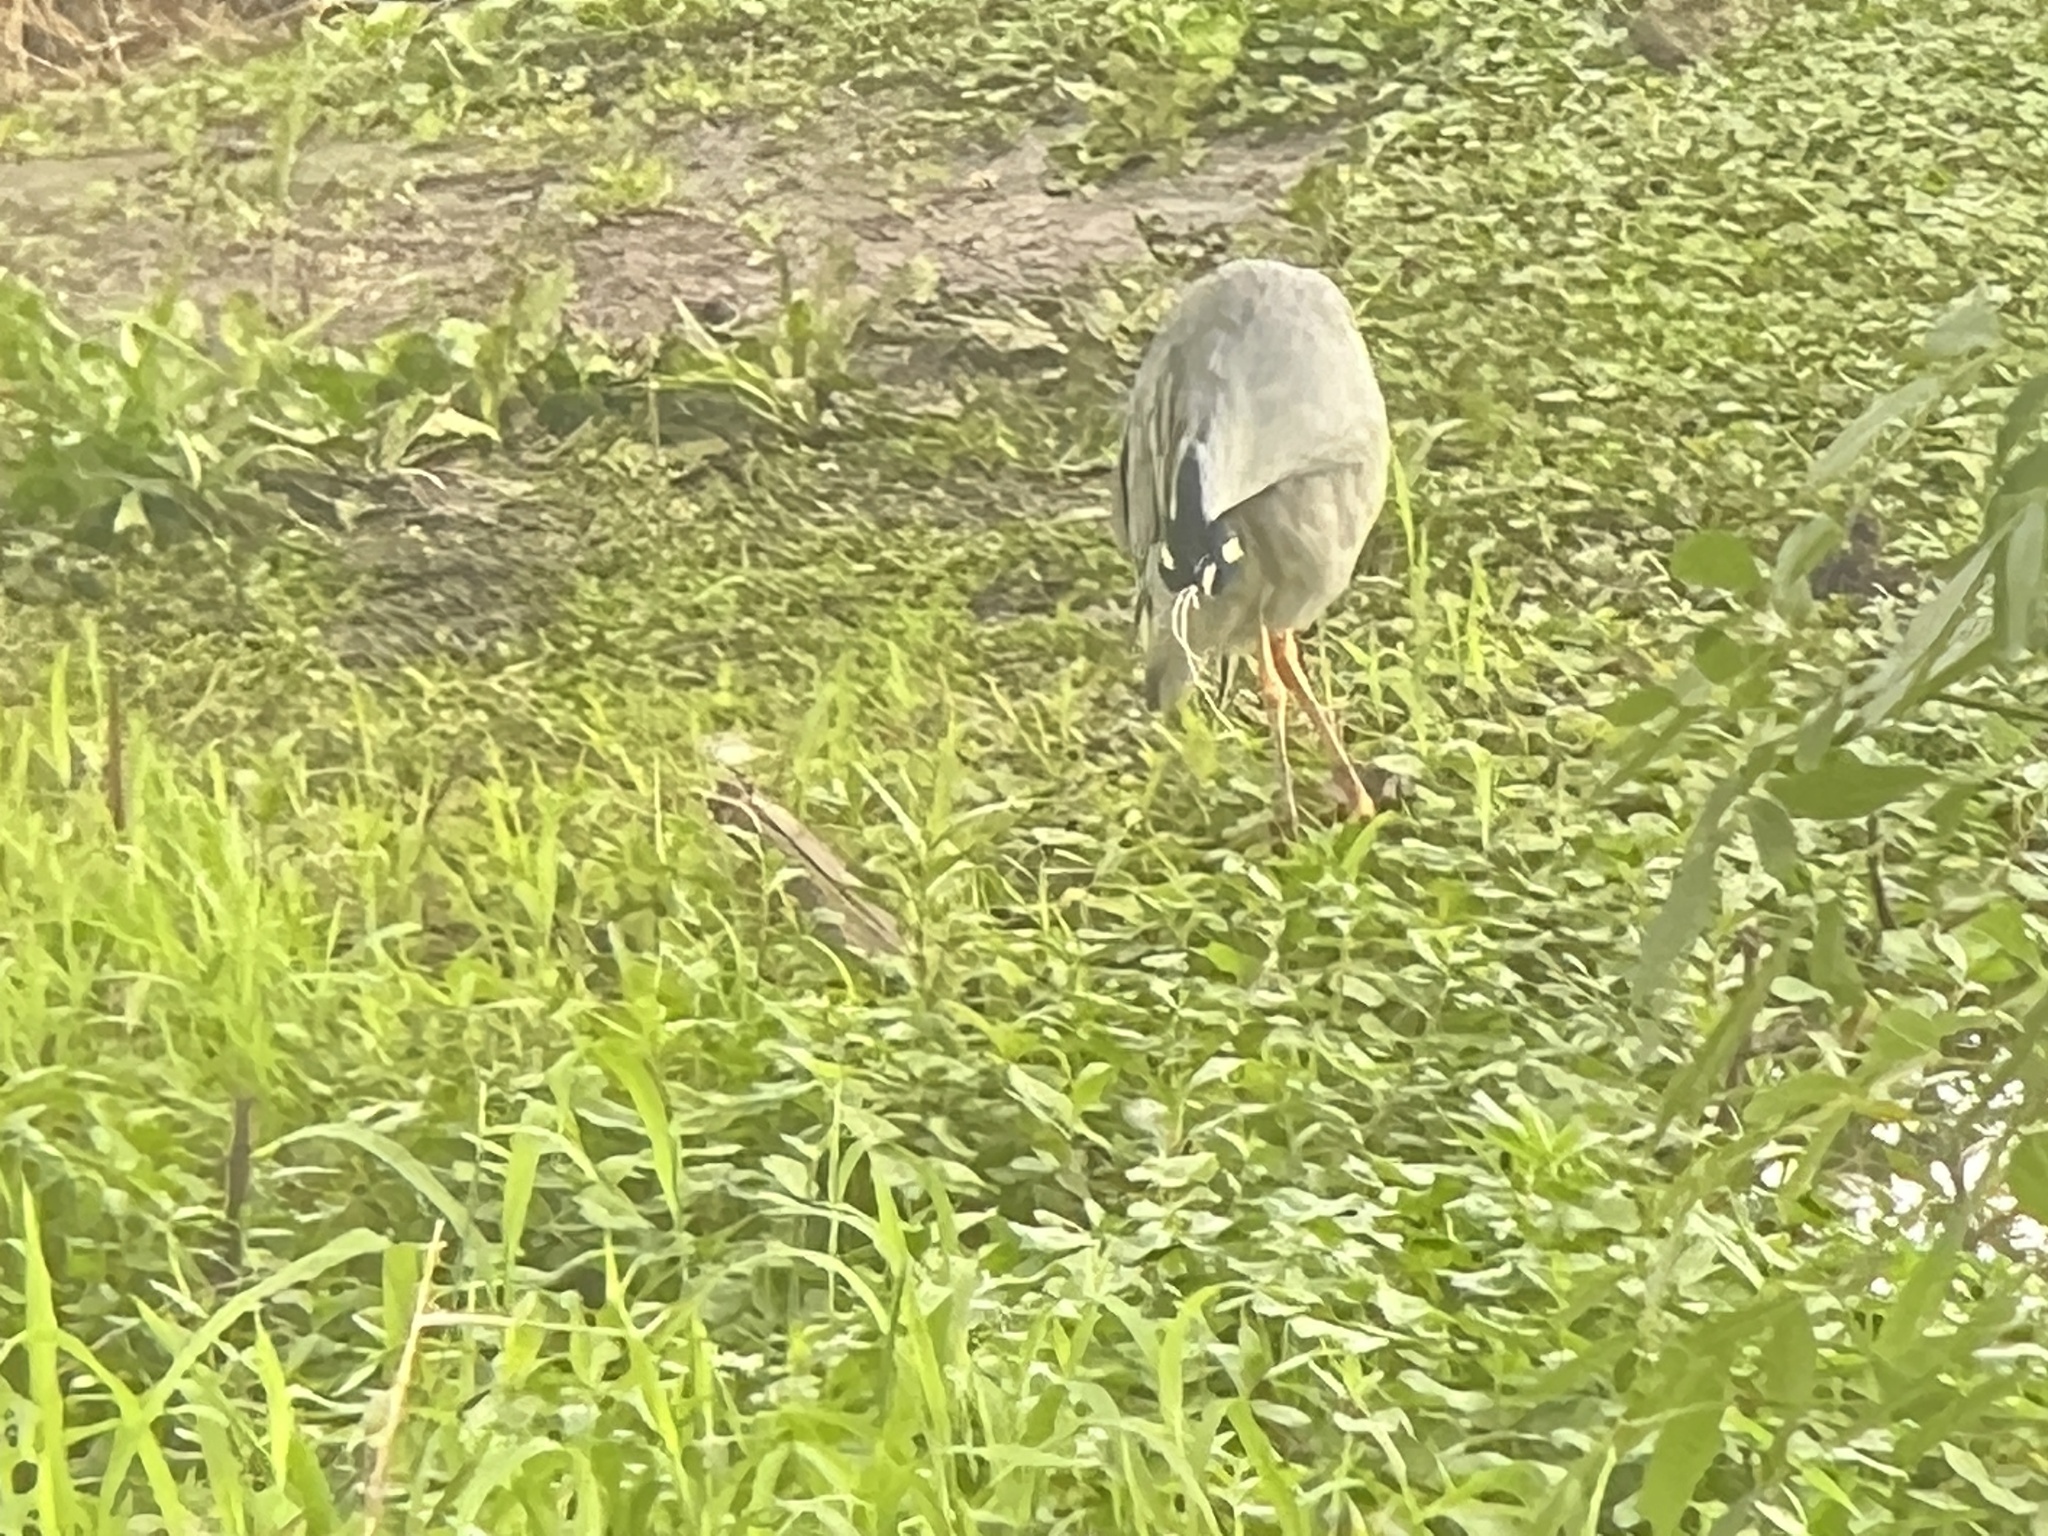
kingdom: Animalia
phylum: Chordata
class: Aves
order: Pelecaniformes
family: Ardeidae
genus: Nyctanassa
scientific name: Nyctanassa violacea
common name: Yellow-crowned night heron
